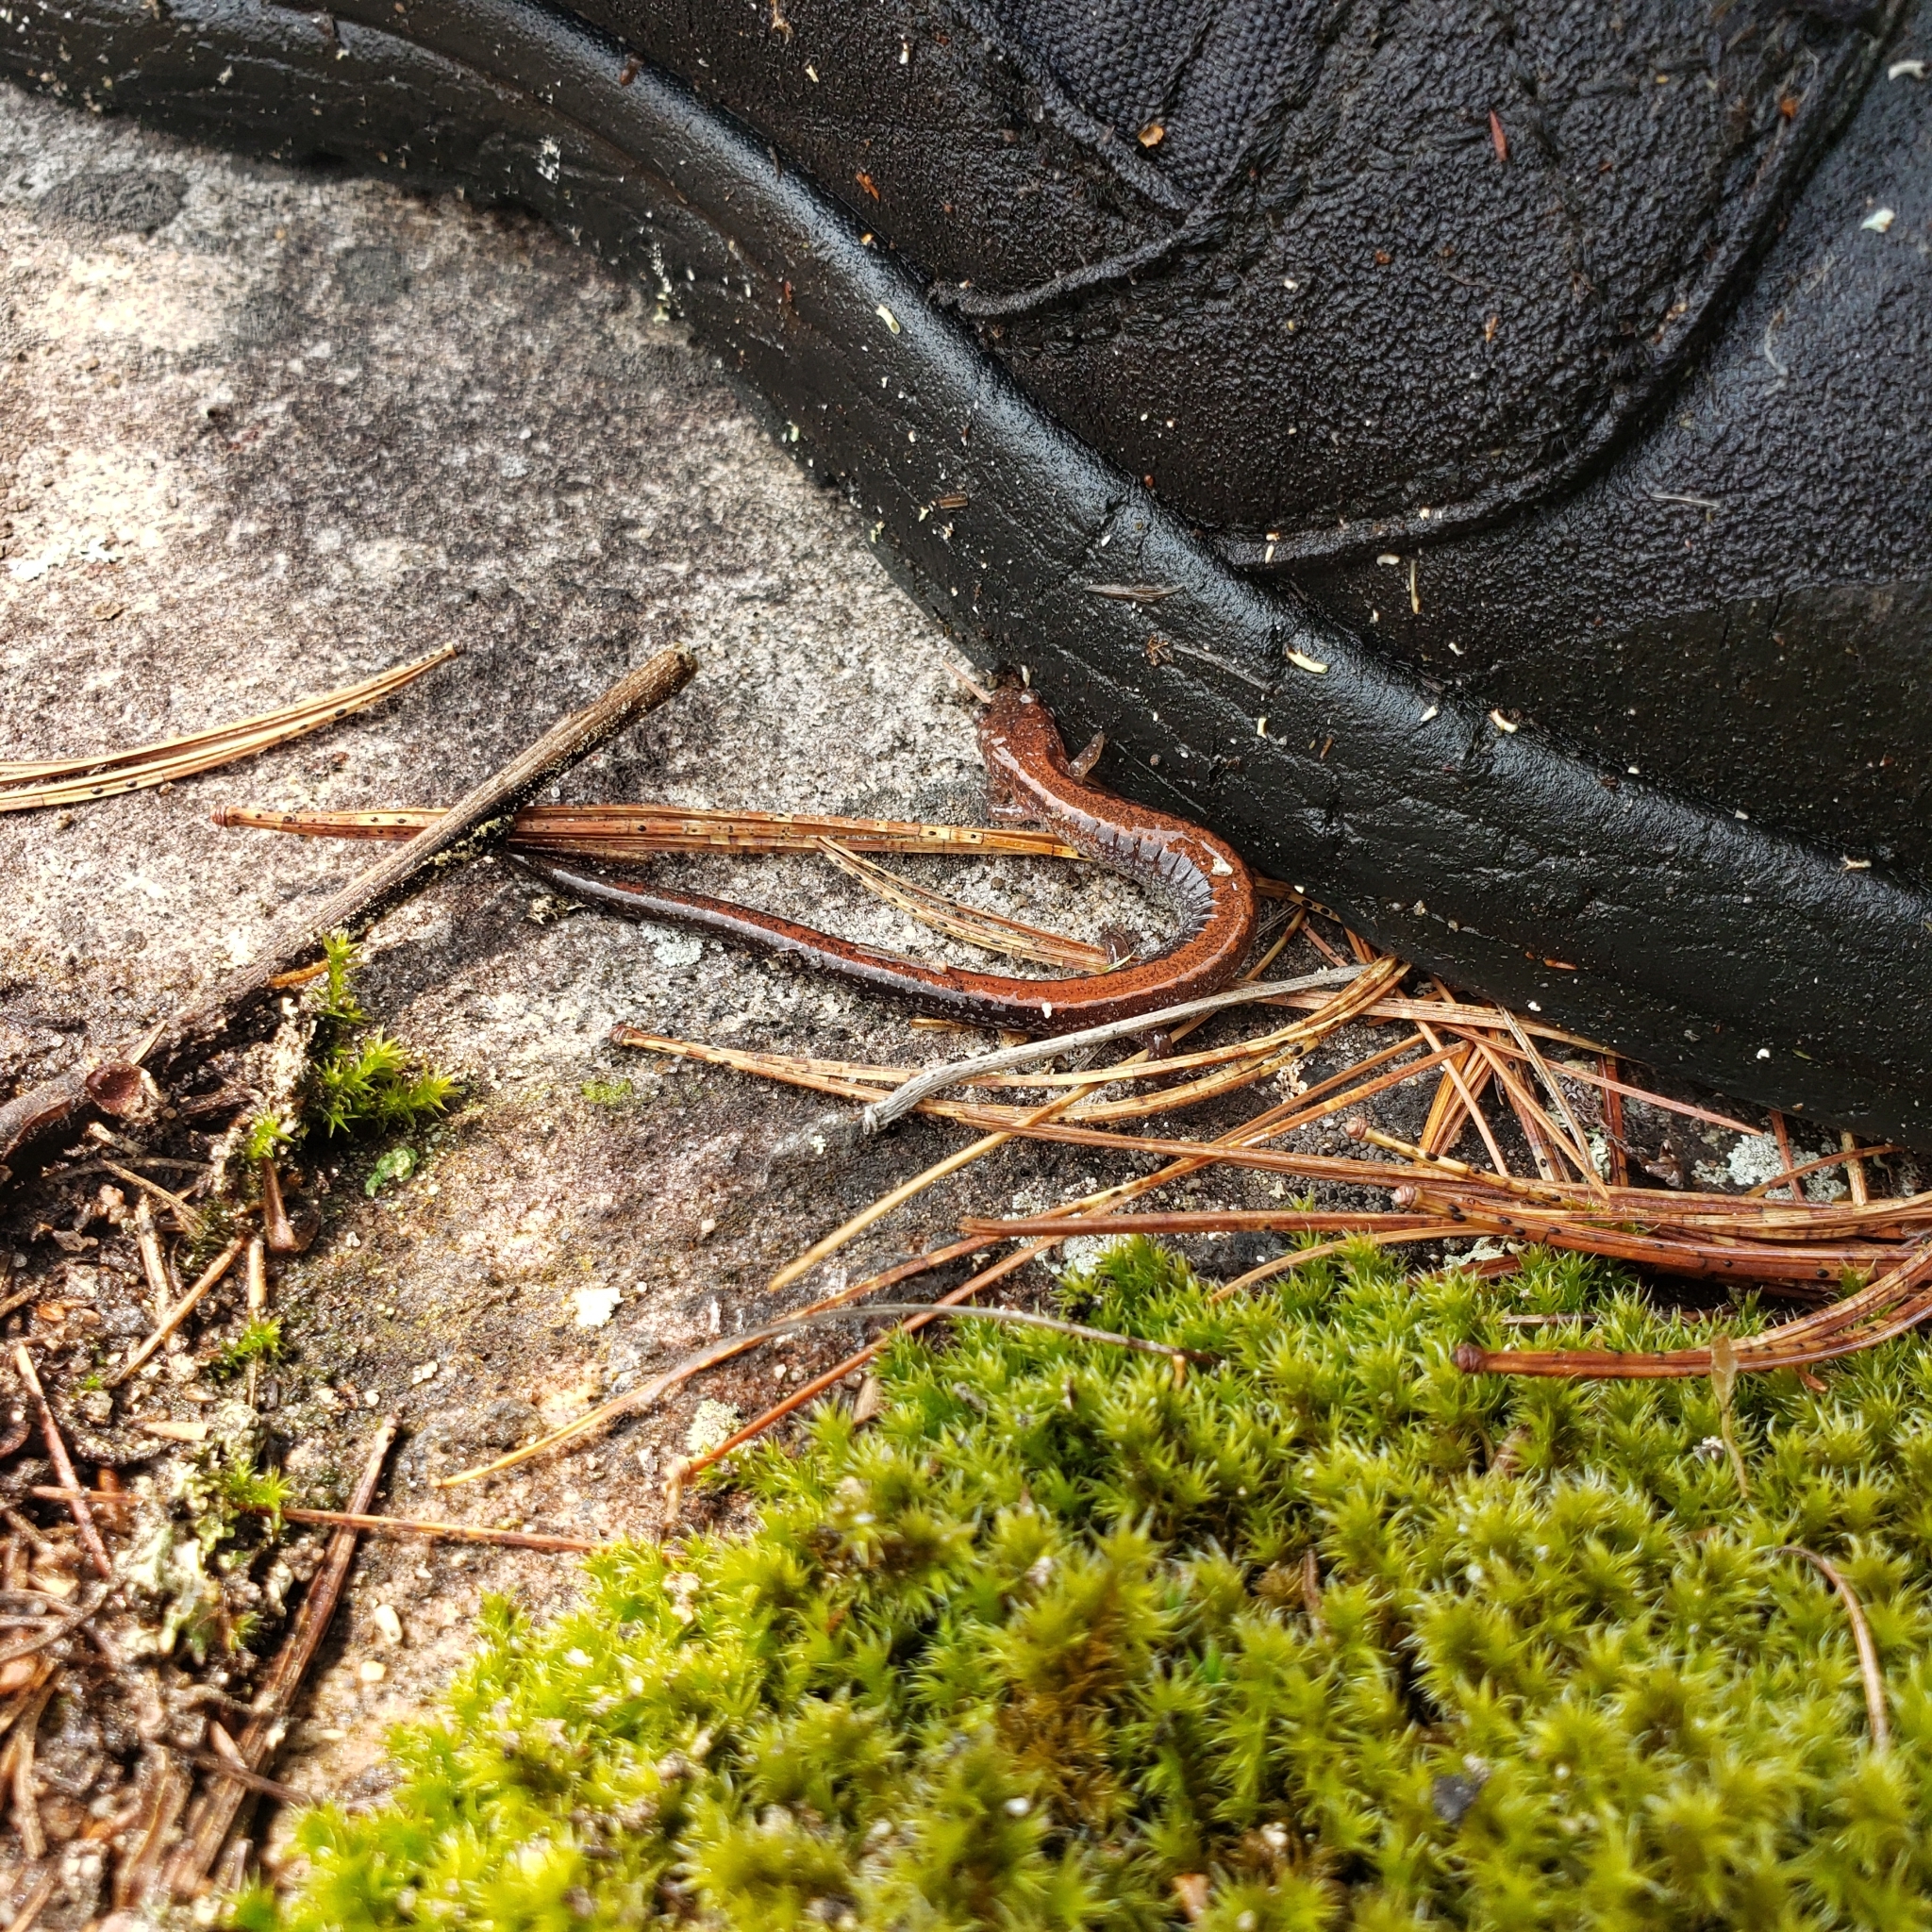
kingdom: Animalia
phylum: Chordata
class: Amphibia
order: Caudata
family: Plethodontidae
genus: Plethodon
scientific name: Plethodon cinereus
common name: Redback salamander
